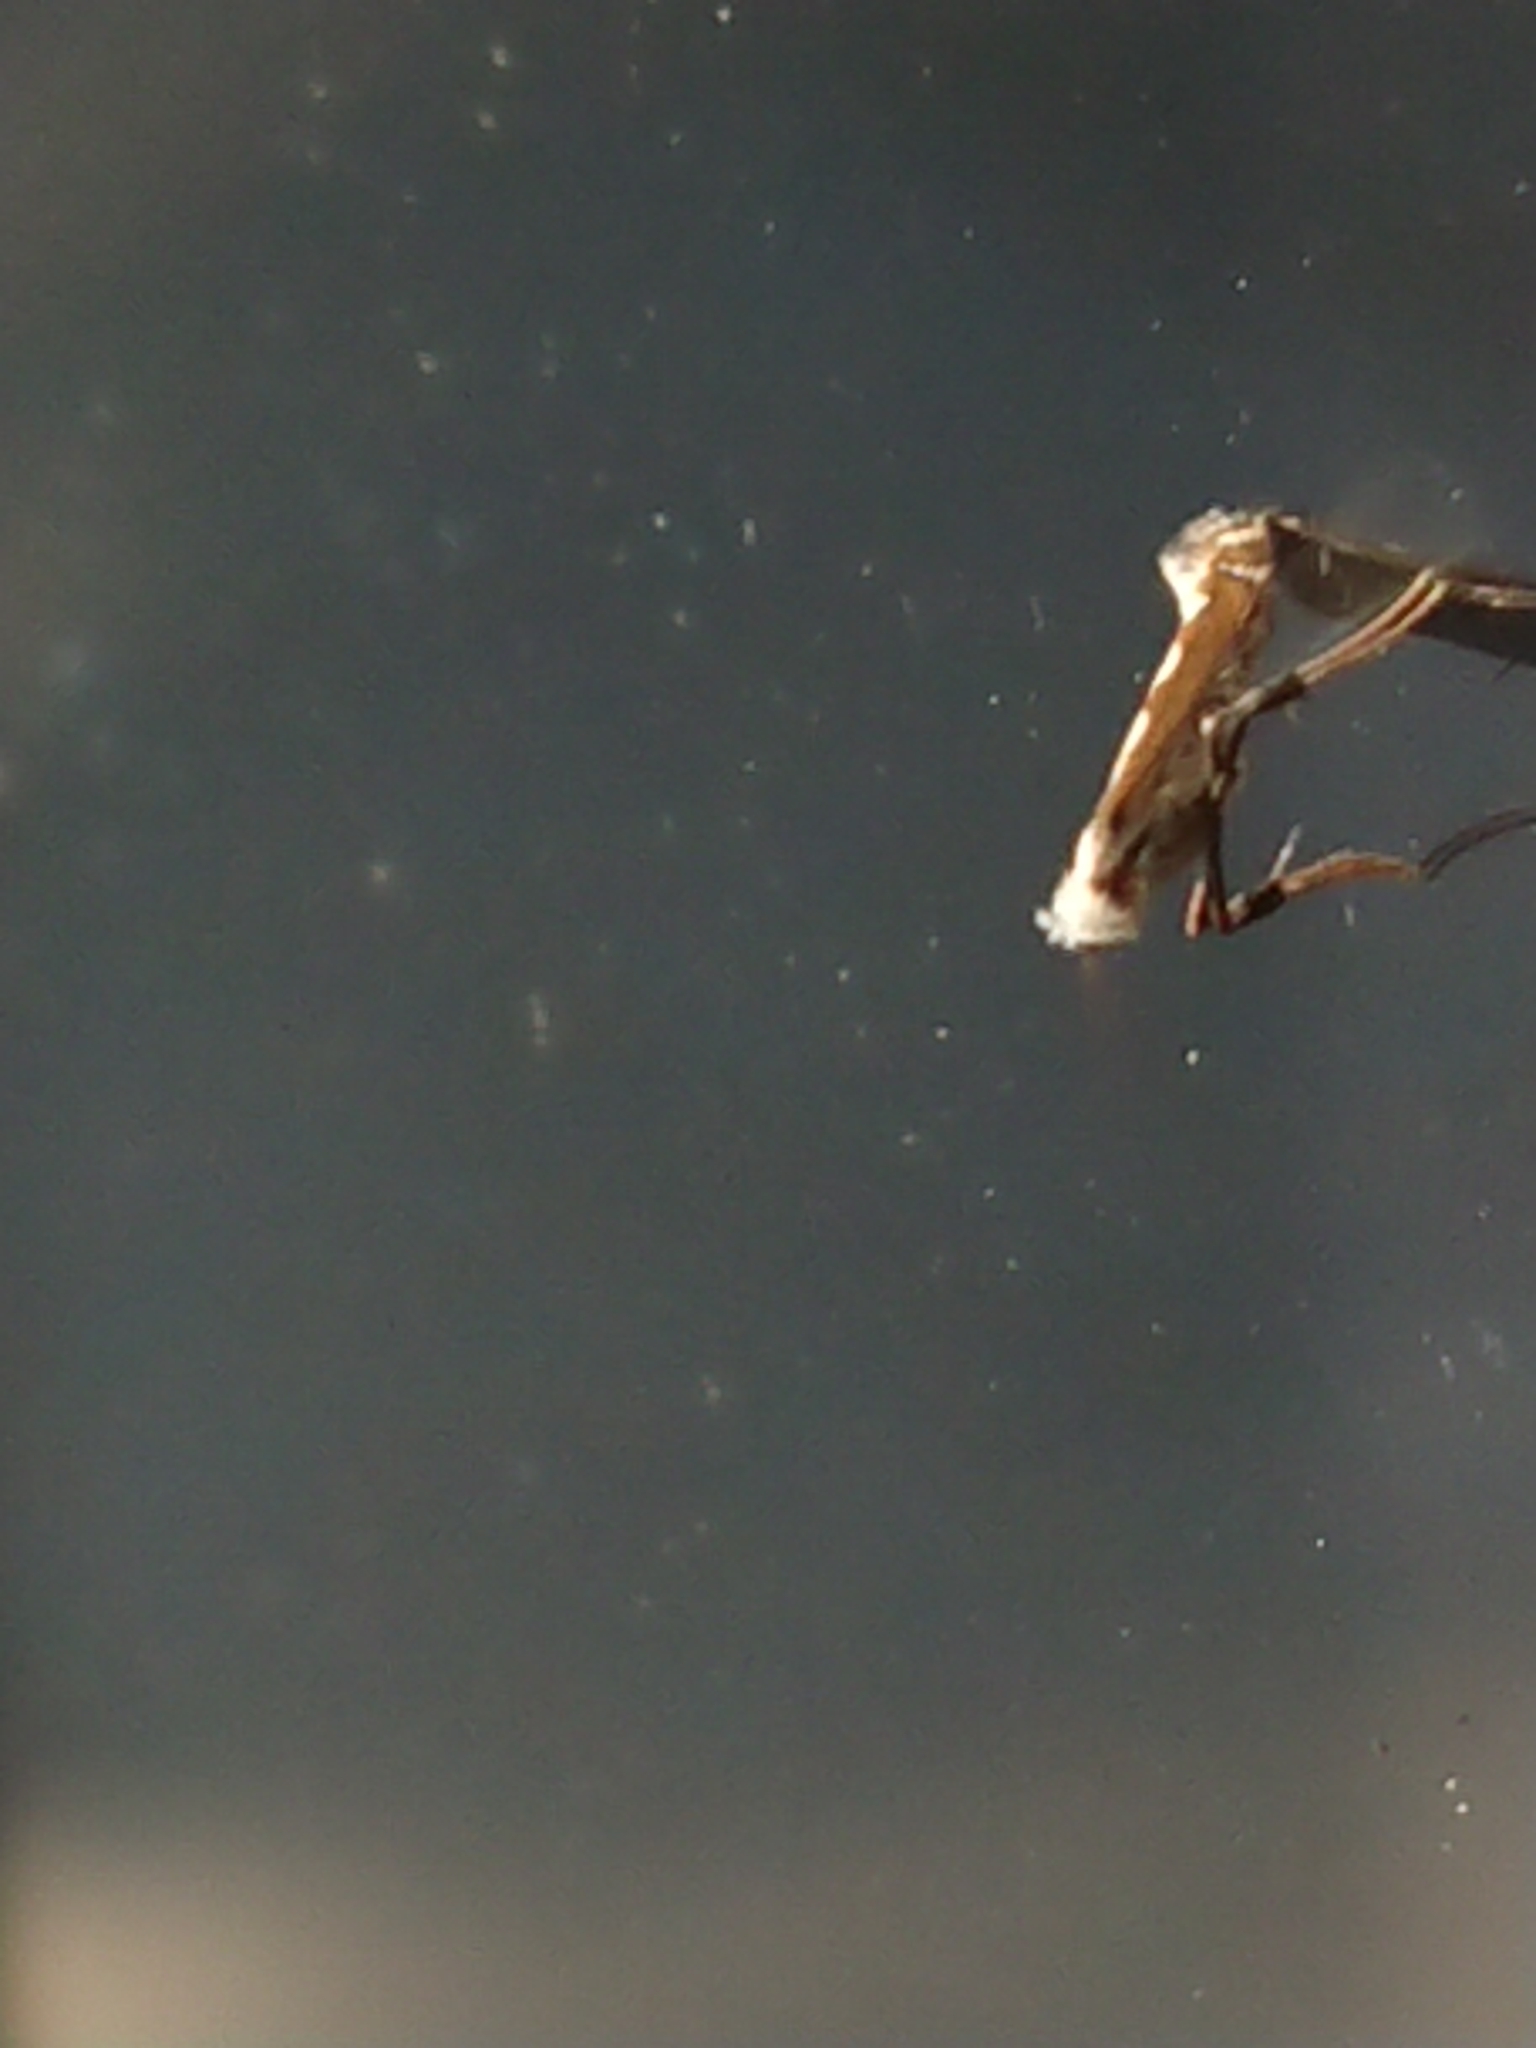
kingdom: Animalia
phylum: Arthropoda
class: Insecta
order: Lepidoptera
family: Gracillariidae
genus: Dialectica
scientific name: Dialectica scalariella
